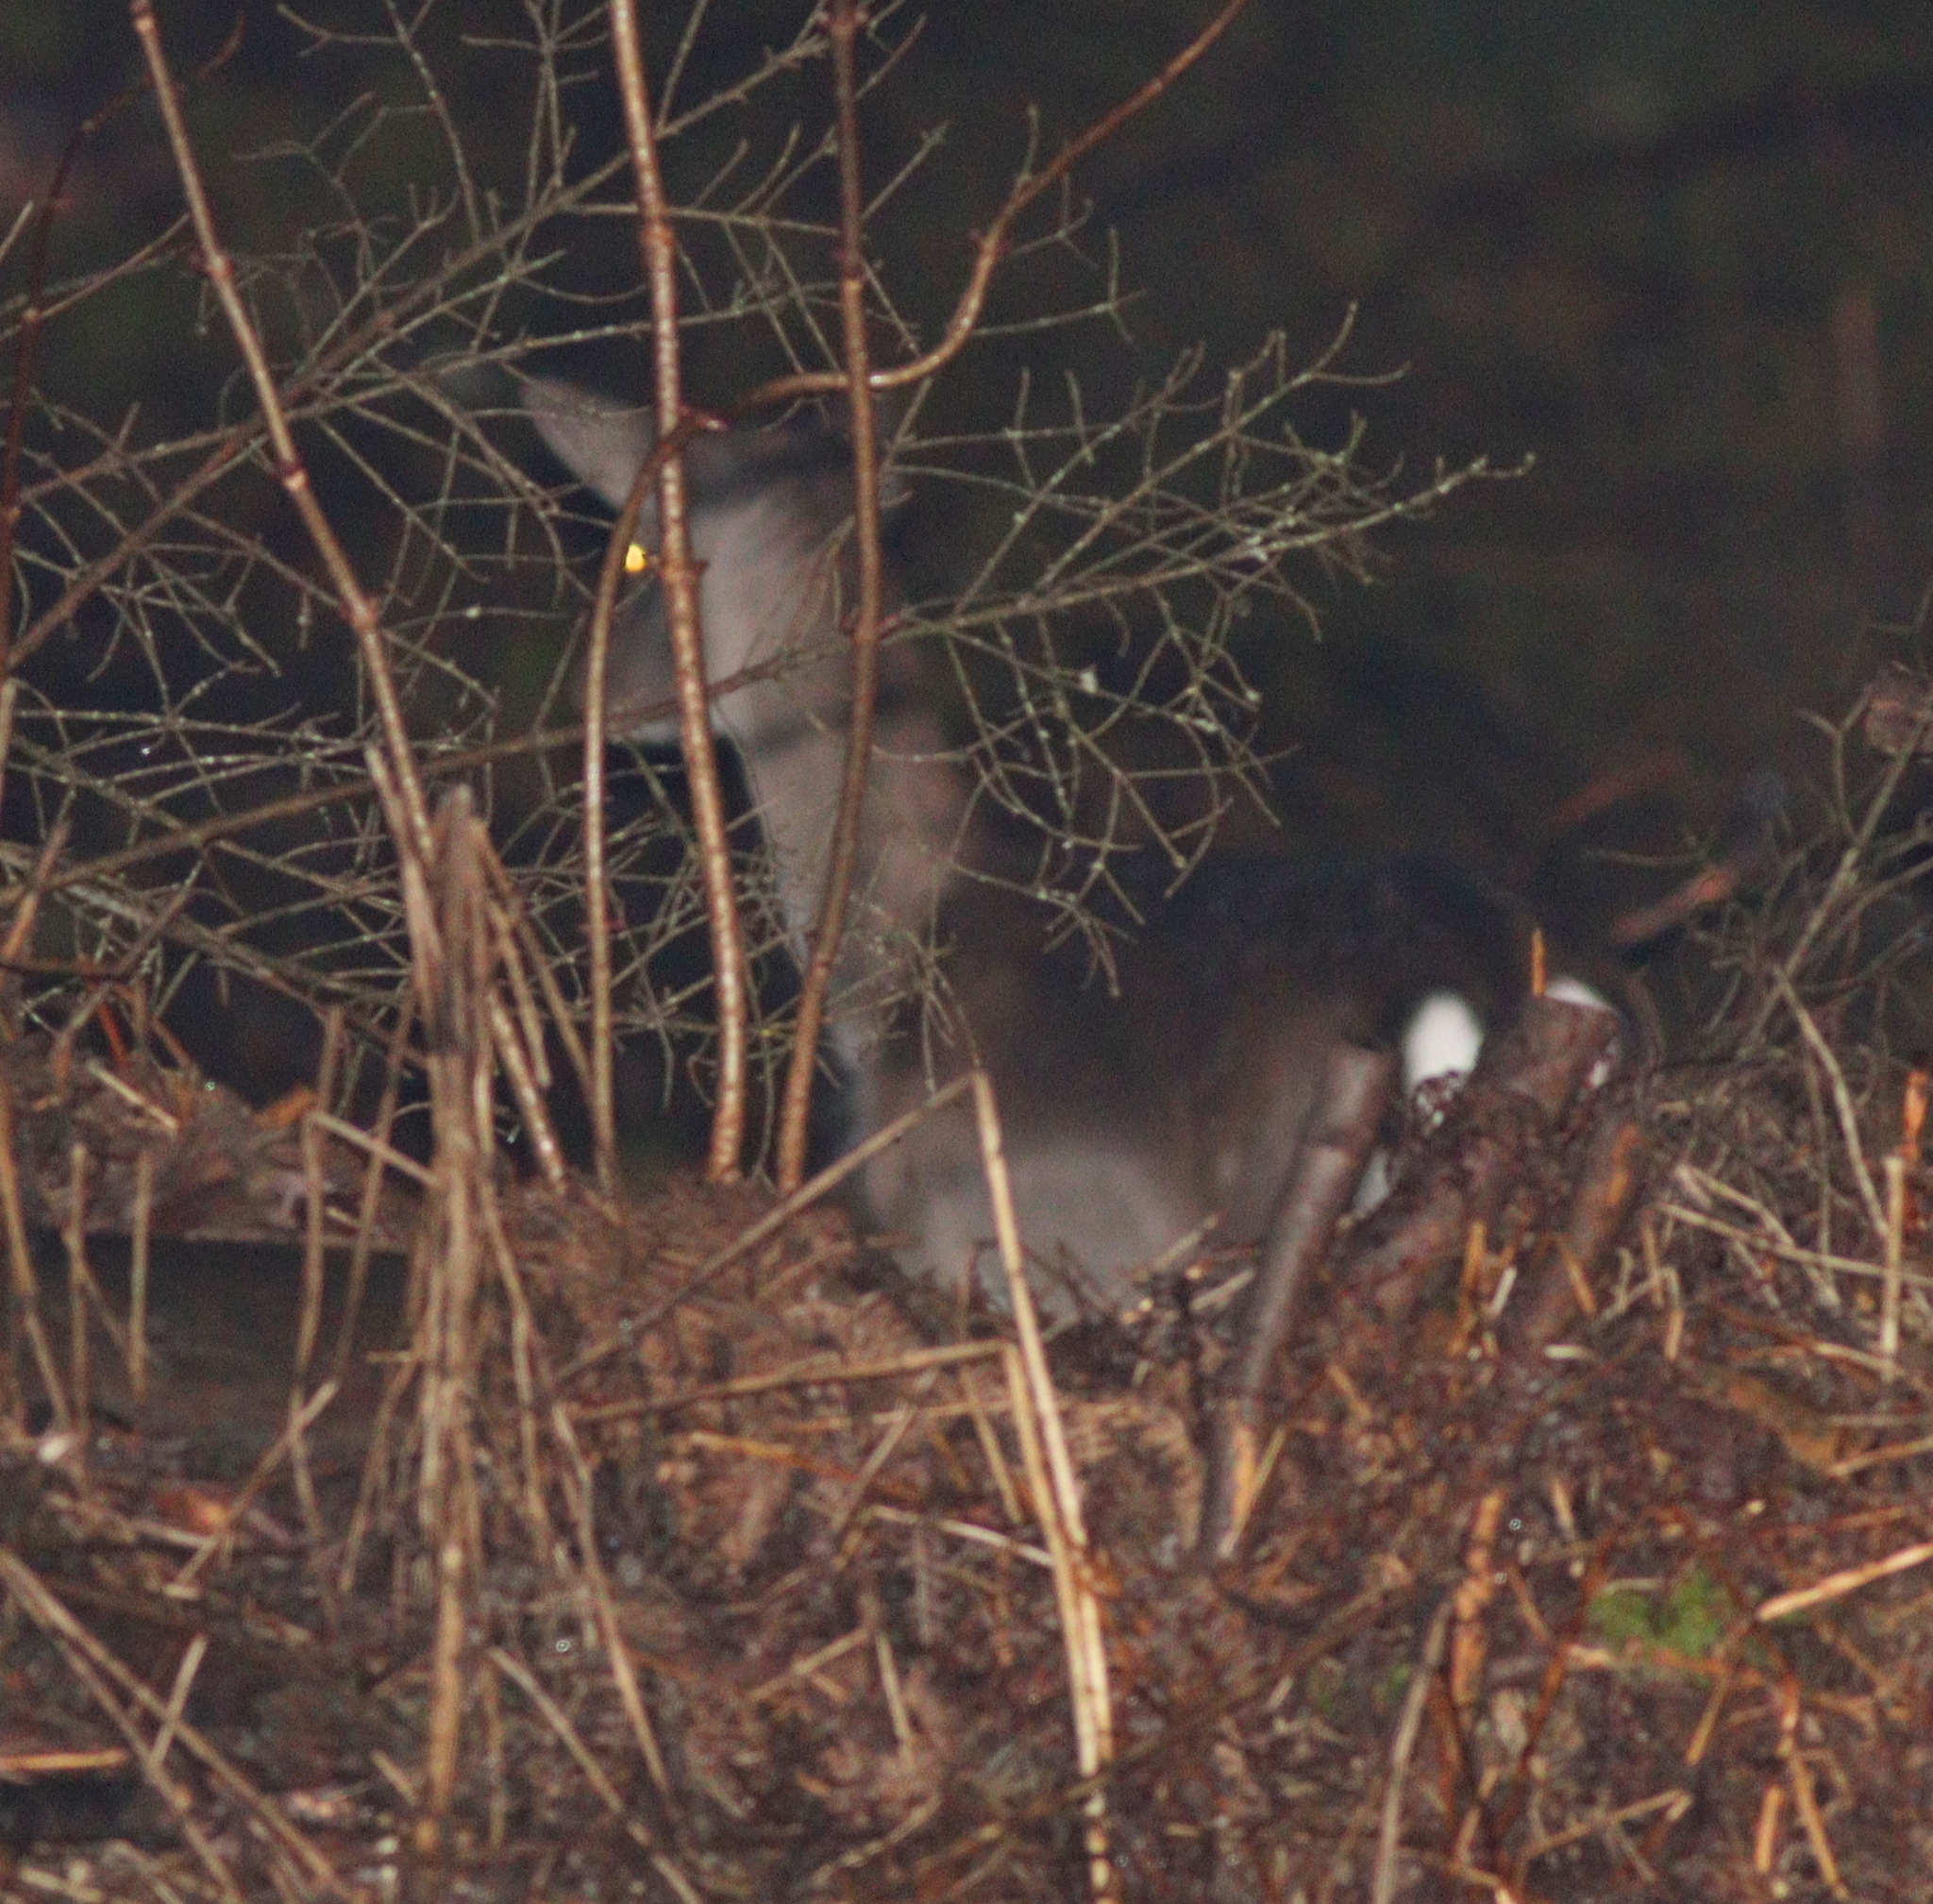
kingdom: Animalia
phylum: Chordata
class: Mammalia
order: Artiodactyla
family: Cervidae
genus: Dama
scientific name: Dama dama
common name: Fallow deer
